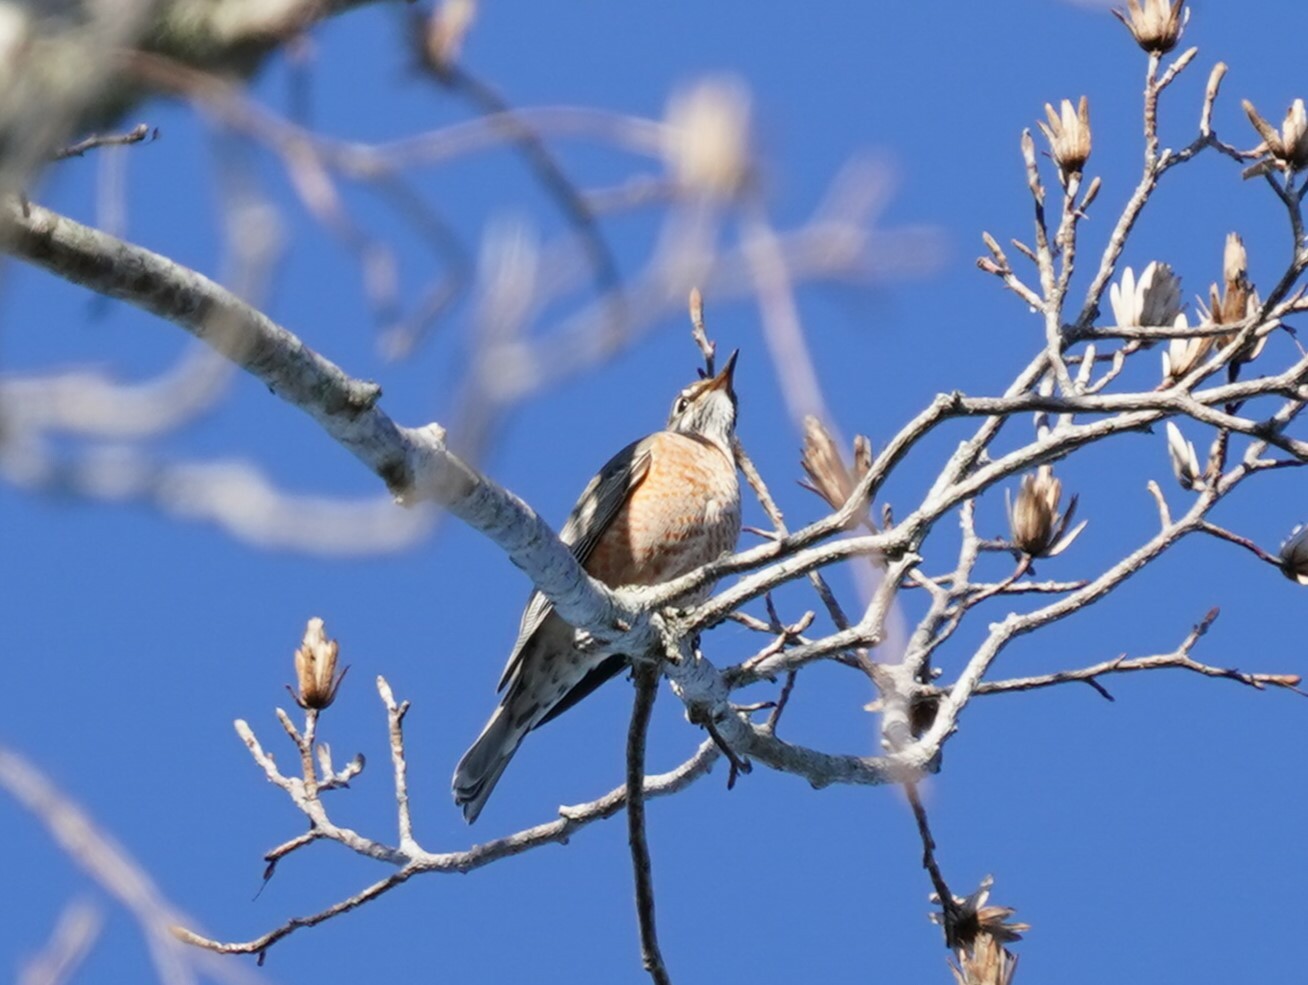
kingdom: Animalia
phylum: Chordata
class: Aves
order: Passeriformes
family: Turdidae
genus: Turdus
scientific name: Turdus migratorius
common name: American robin
